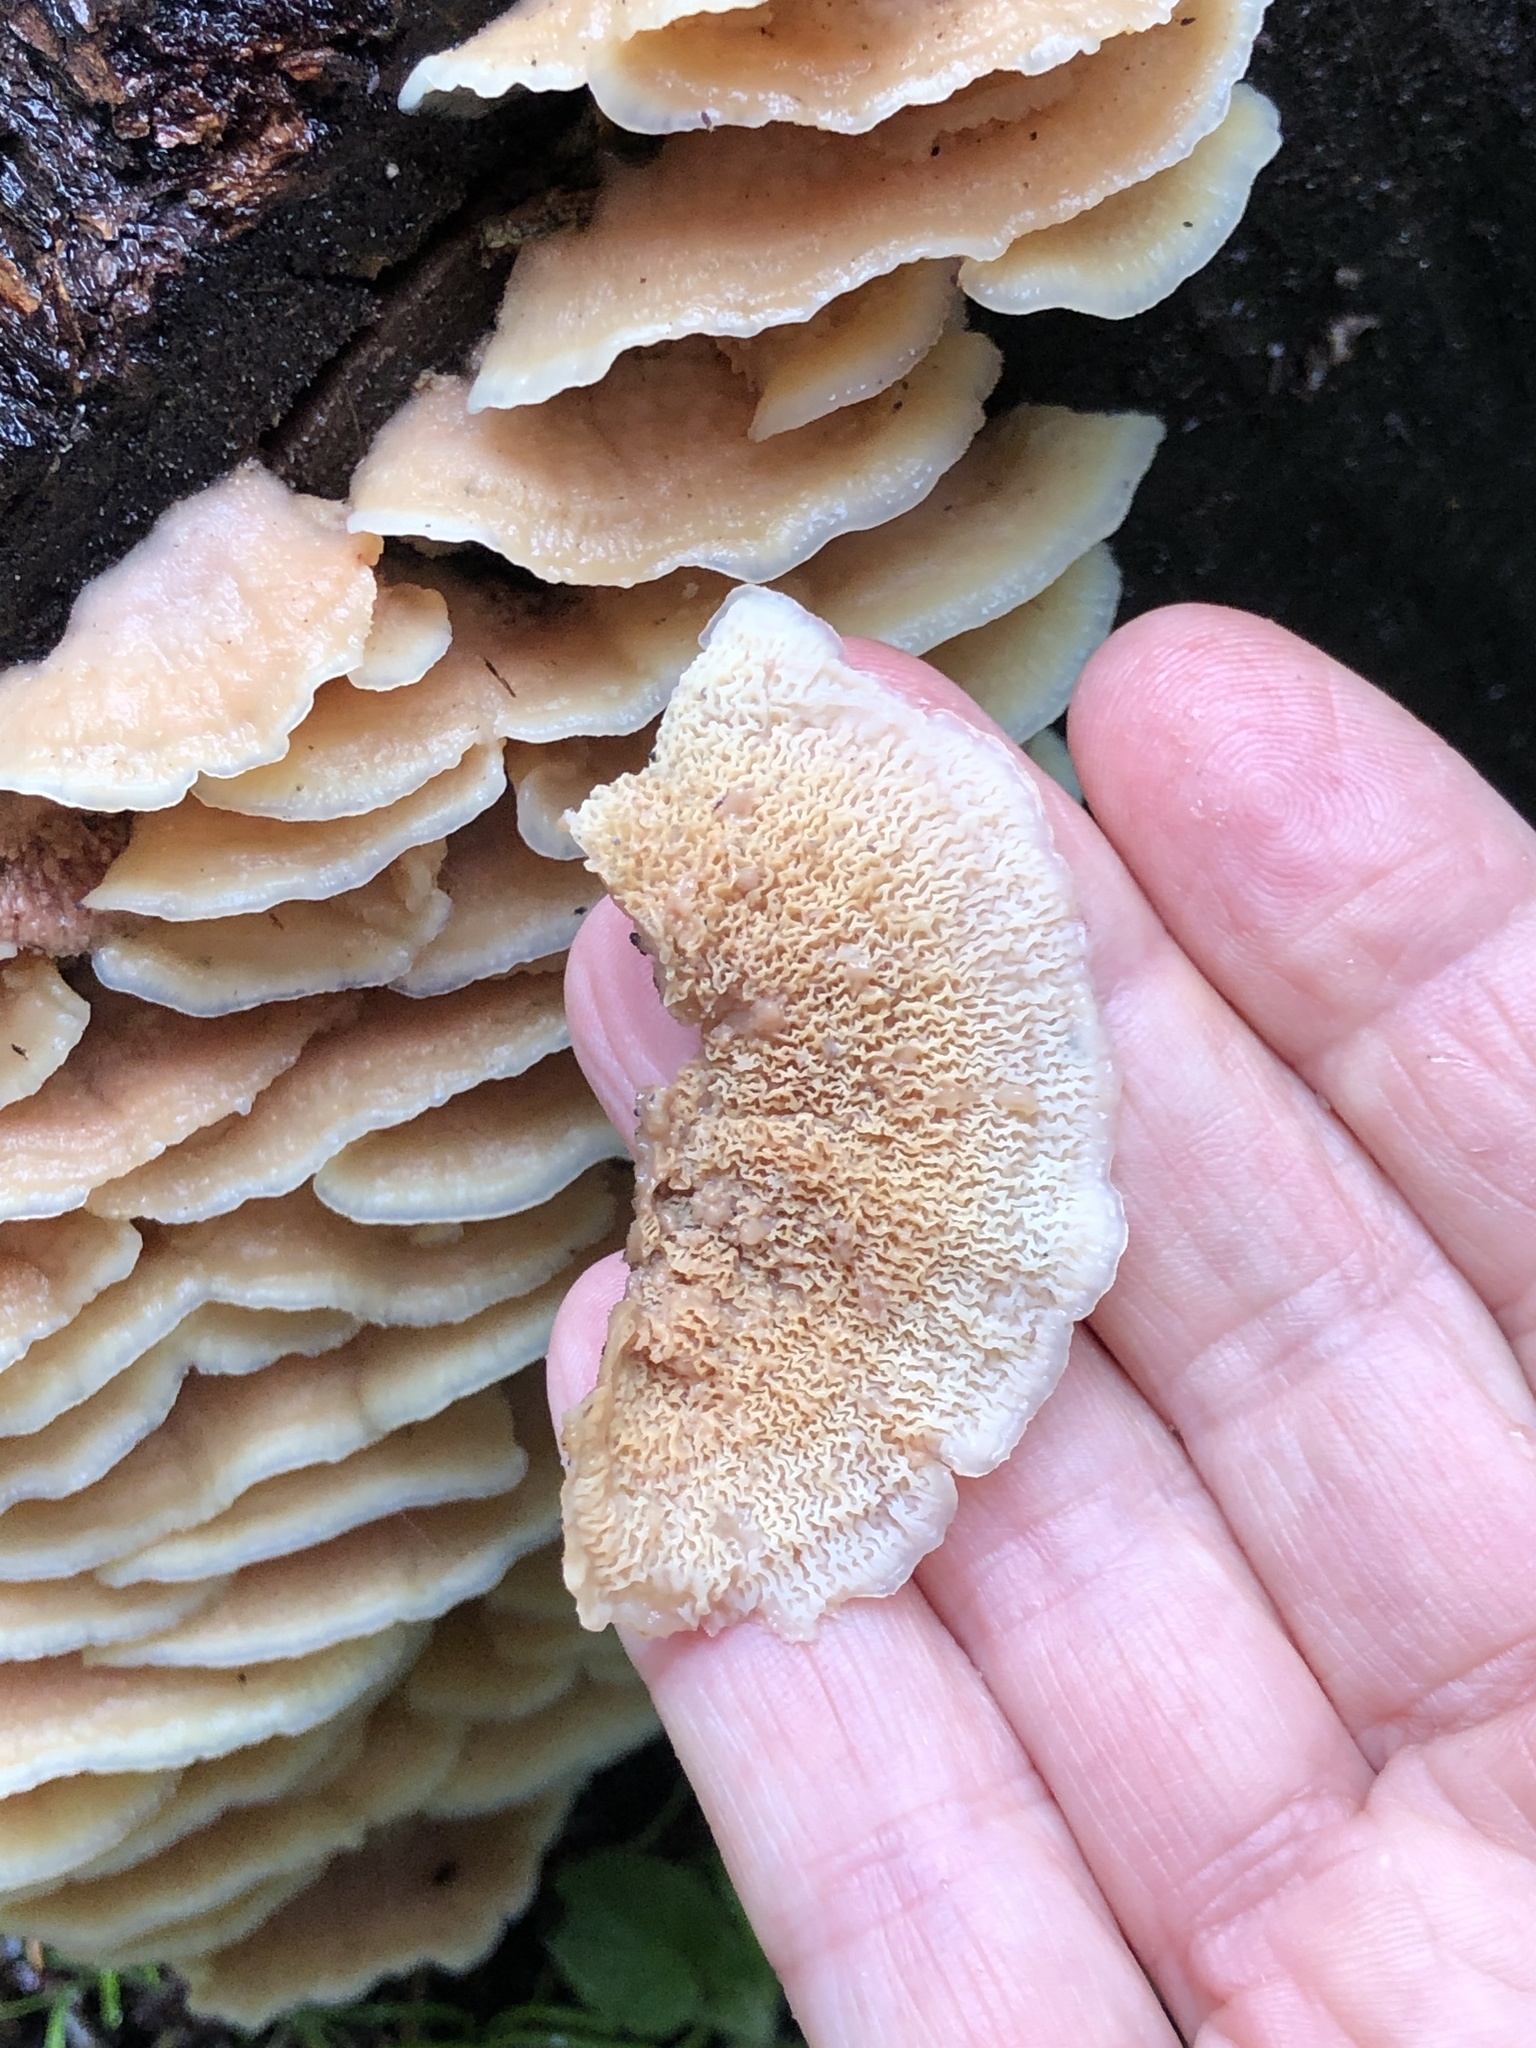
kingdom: Fungi
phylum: Basidiomycota
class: Agaricomycetes
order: Polyporales
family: Meruliaceae
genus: Phlebia
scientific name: Phlebia tremellosa
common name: Jelly rot
